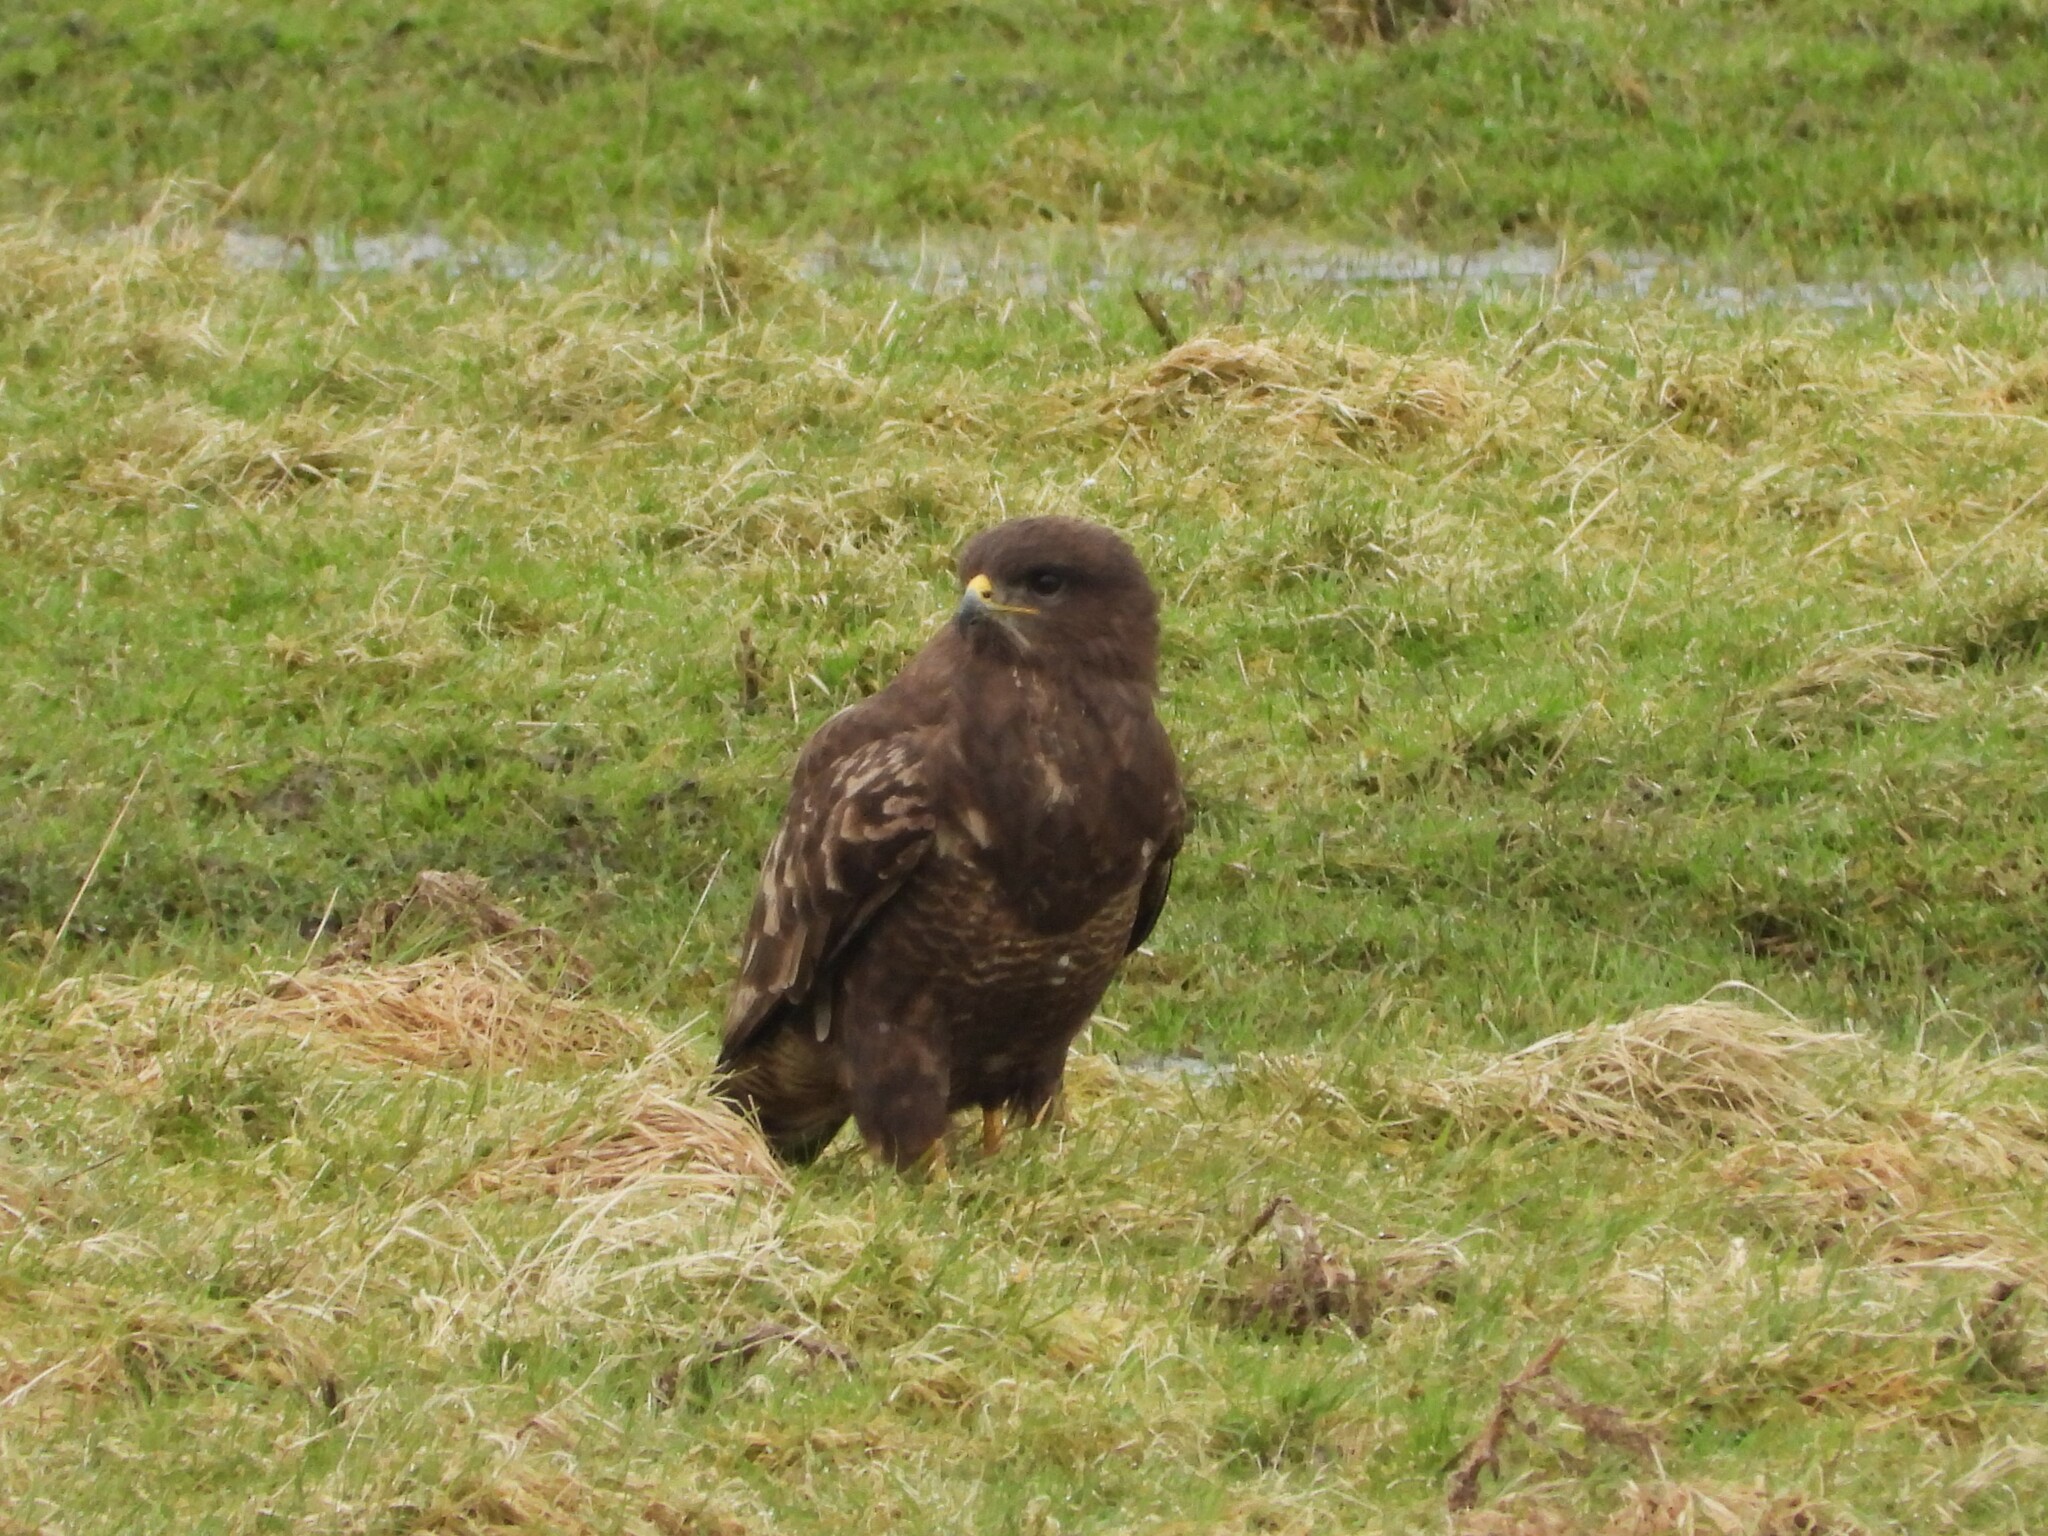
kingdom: Animalia
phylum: Chordata
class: Aves
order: Accipitriformes
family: Accipitridae
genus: Buteo
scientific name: Buteo buteo
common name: Common buzzard
